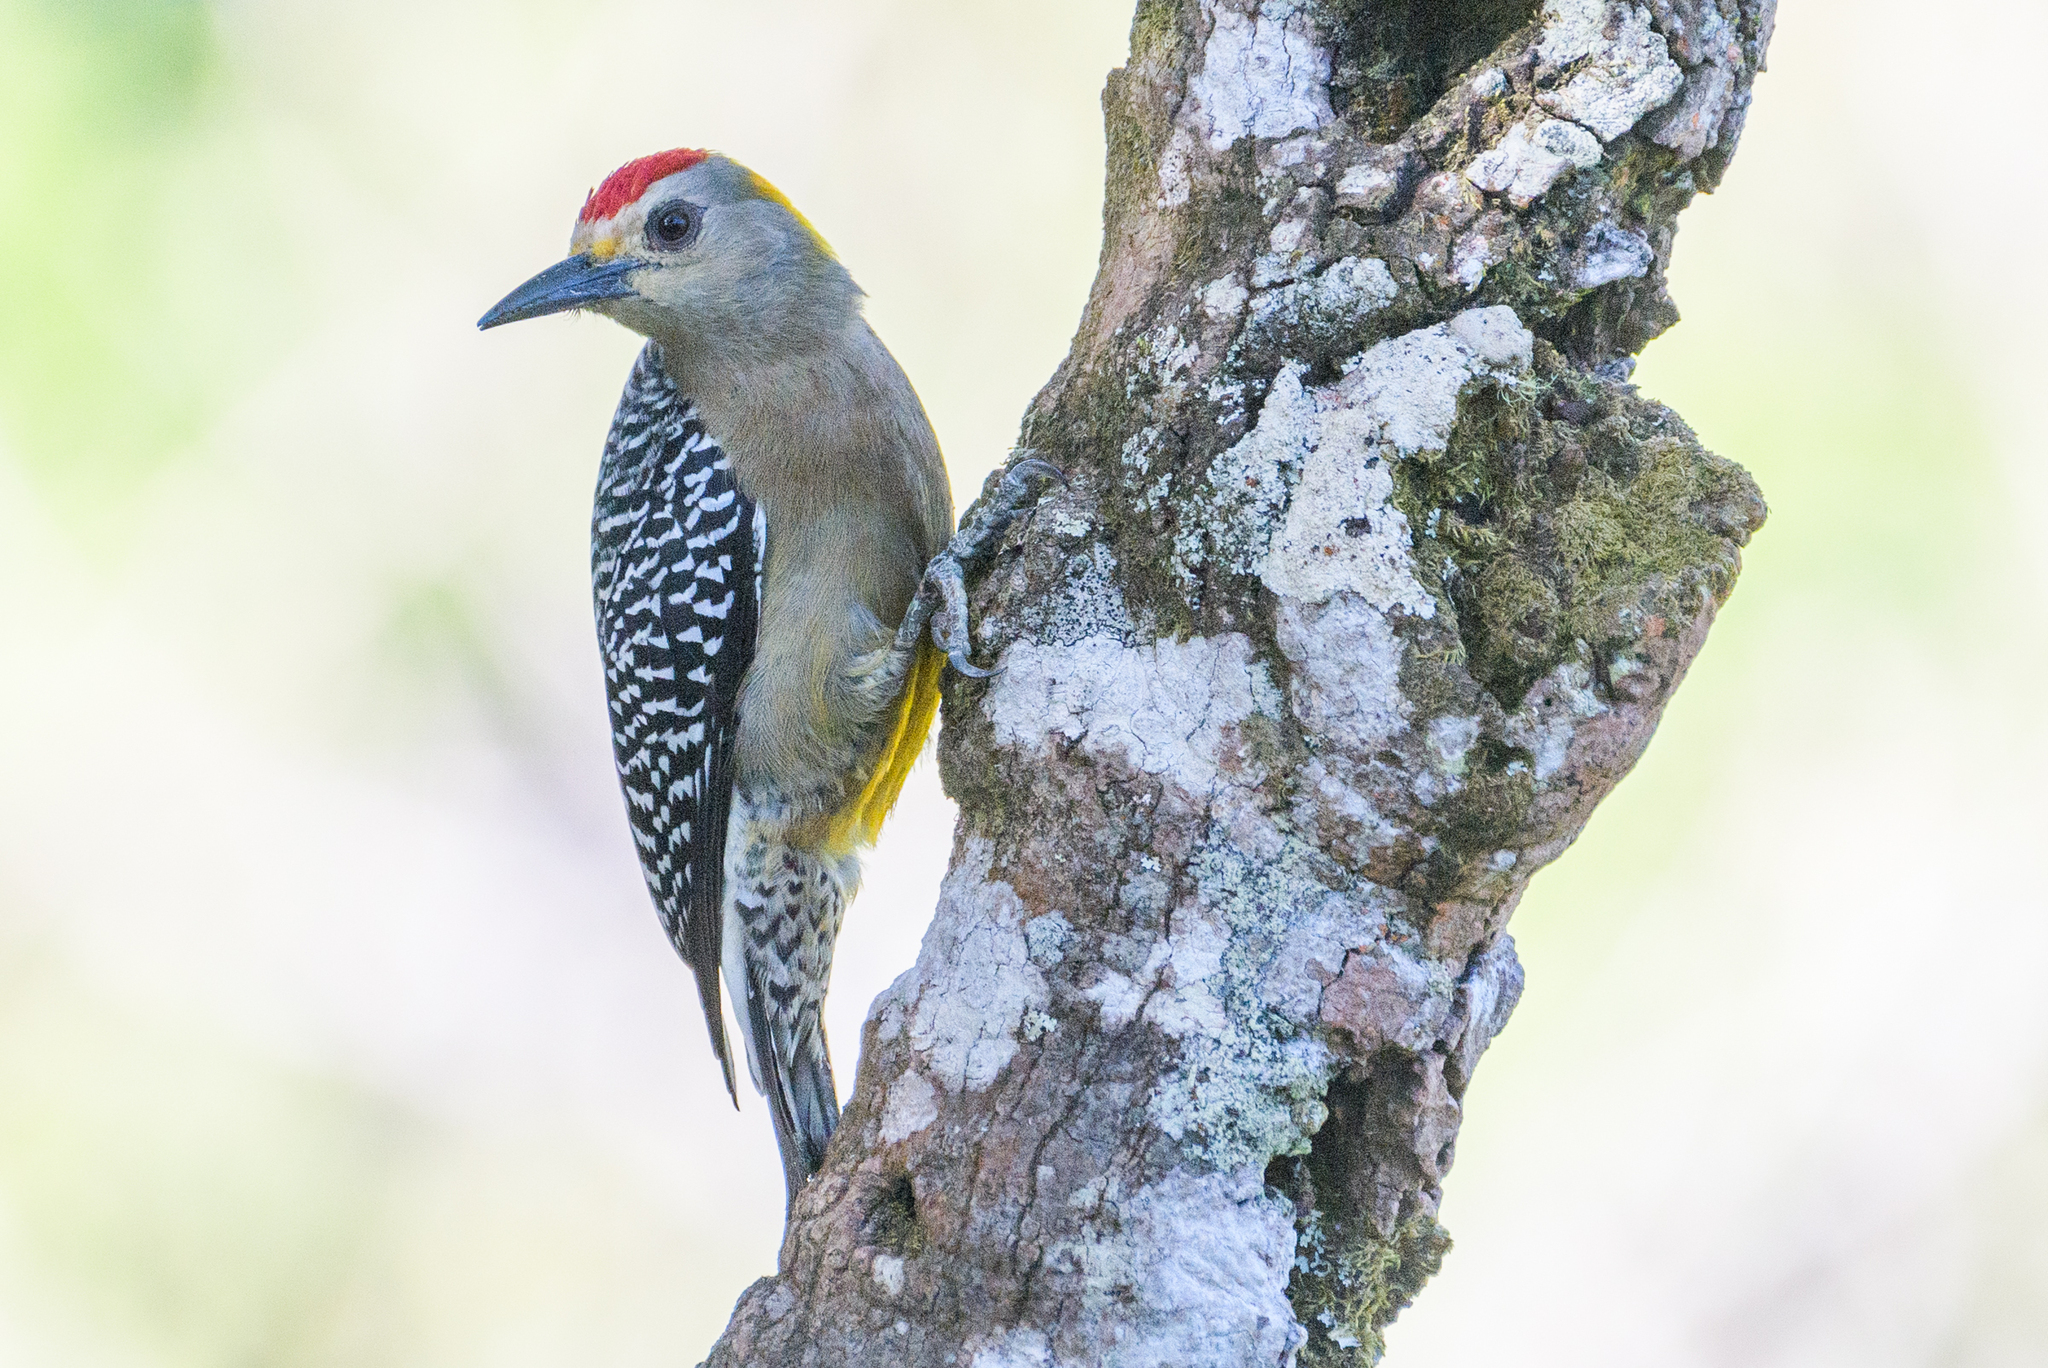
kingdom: Animalia
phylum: Chordata
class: Aves
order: Piciformes
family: Picidae
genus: Melanerpes
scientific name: Melanerpes hoffmannii
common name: Hoffmann's woodpecker
